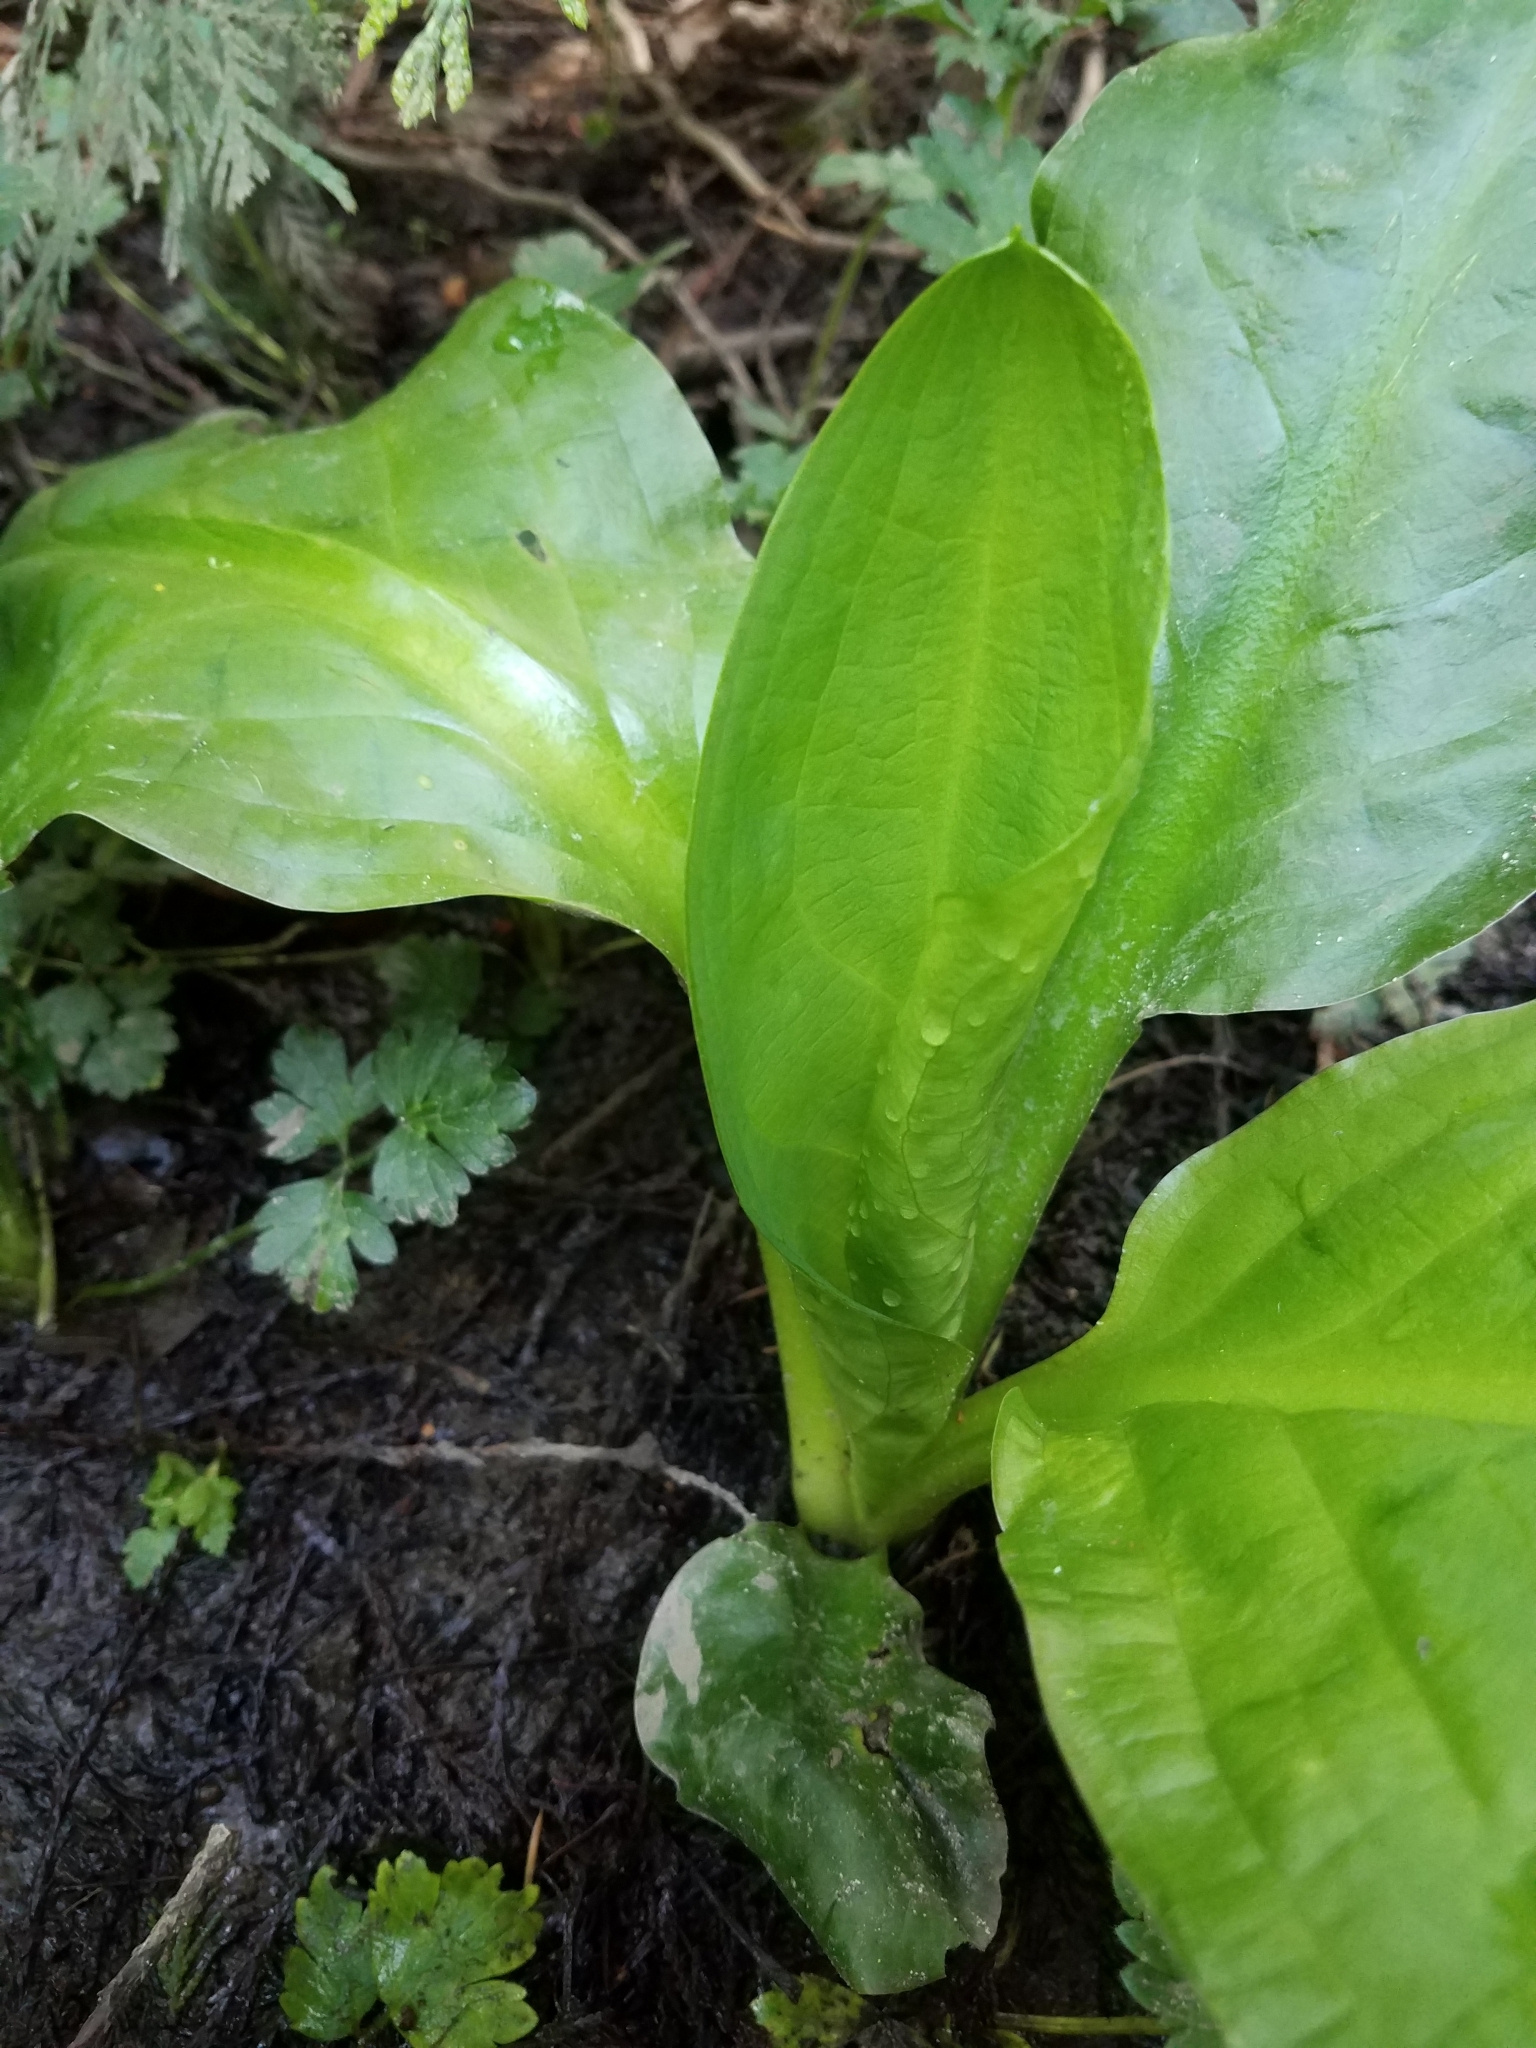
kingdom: Plantae
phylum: Tracheophyta
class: Liliopsida
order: Alismatales
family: Araceae
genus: Lysichiton
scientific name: Lysichiton americanus
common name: American skunk cabbage
